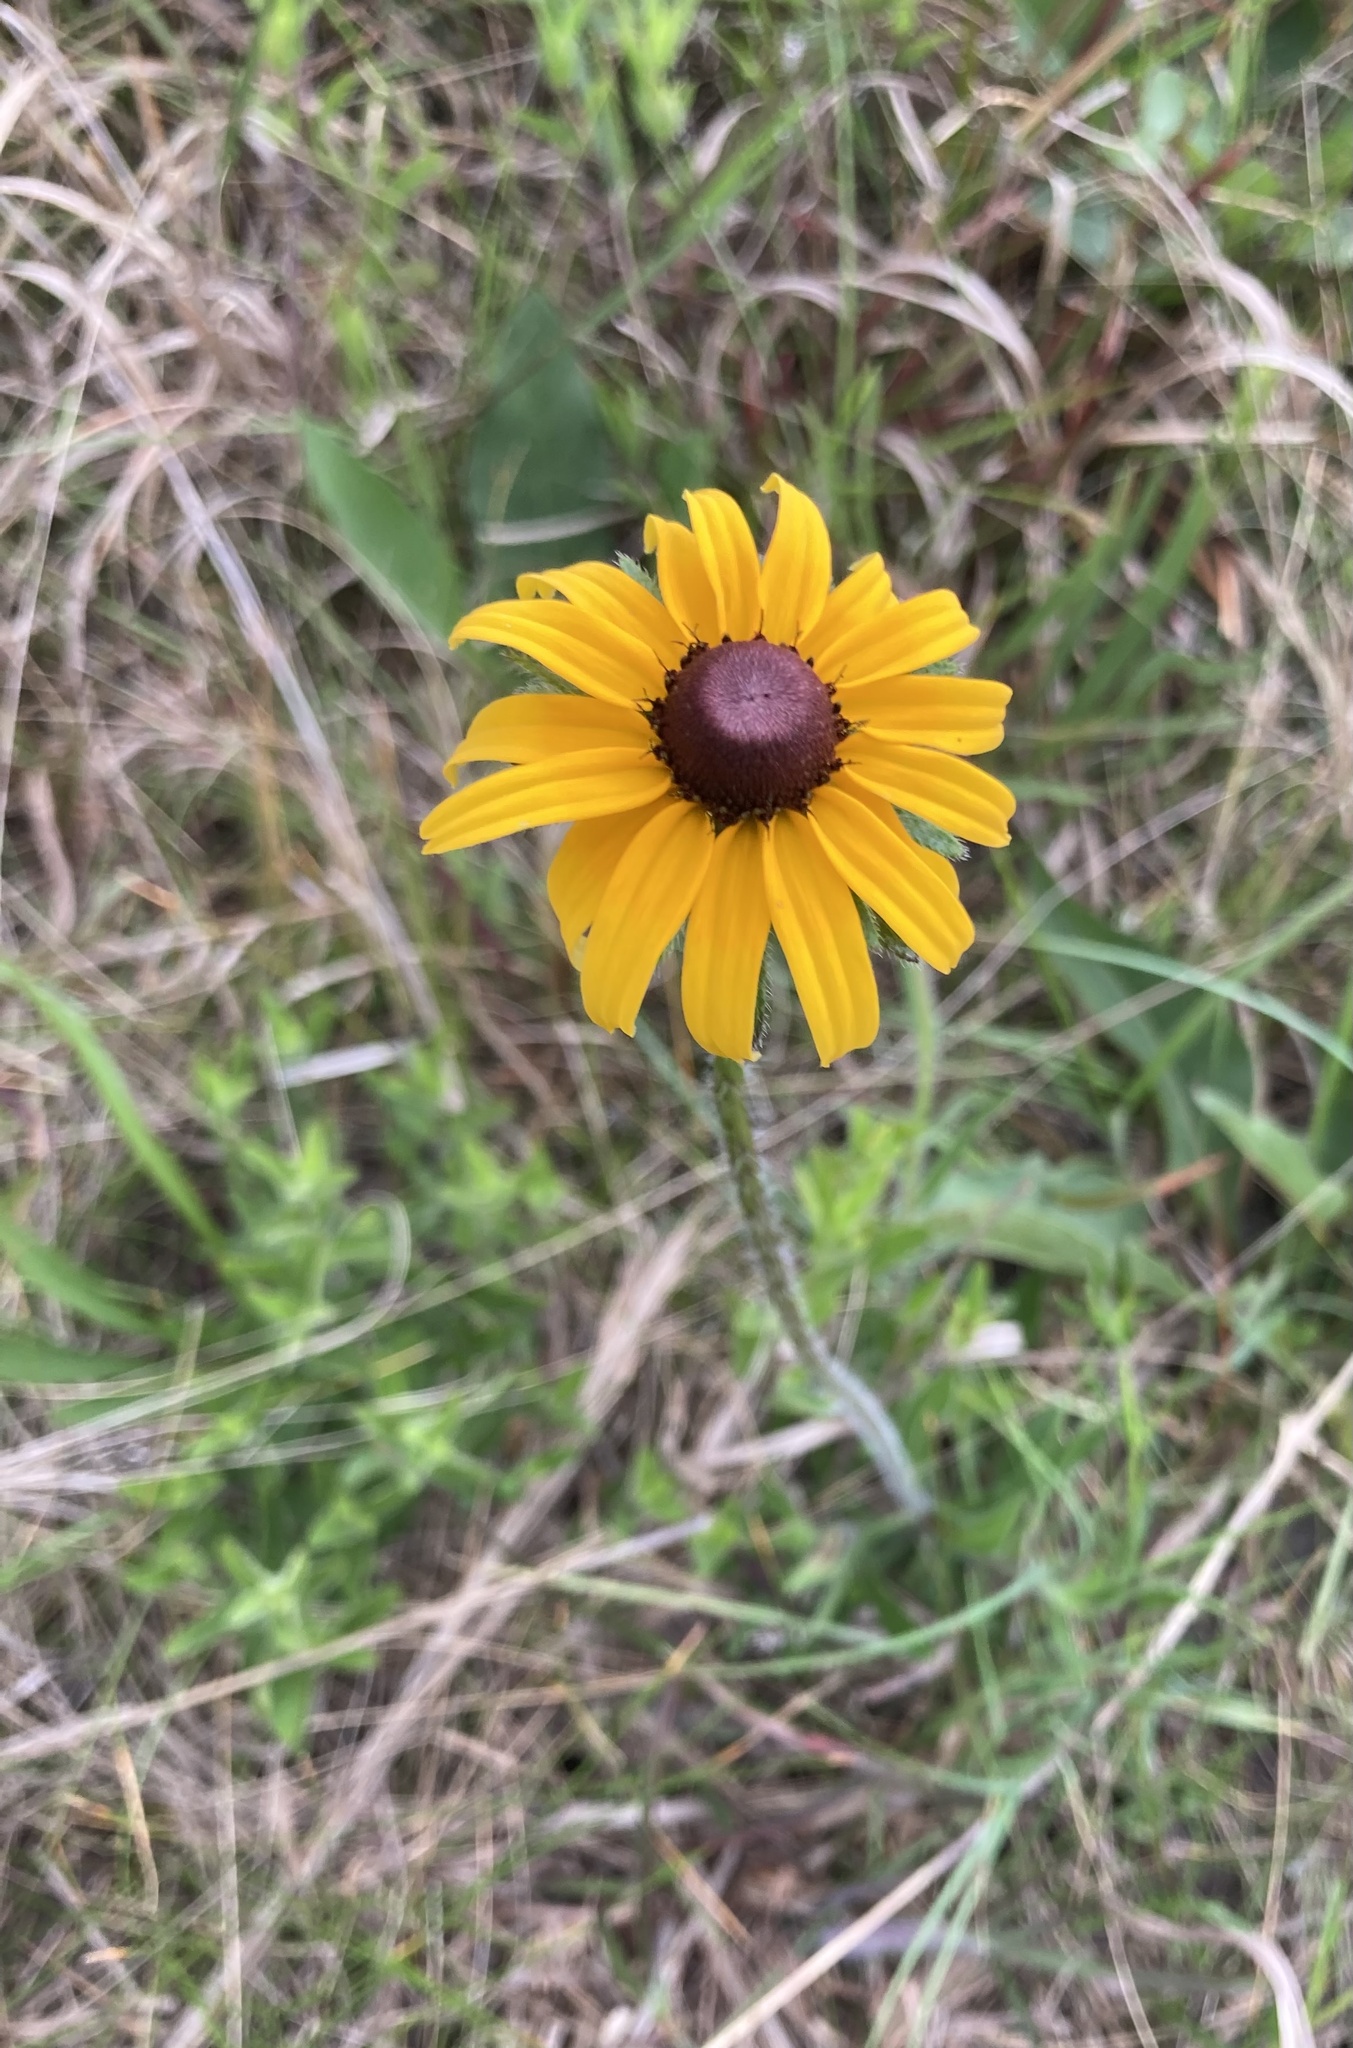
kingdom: Plantae
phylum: Tracheophyta
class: Magnoliopsida
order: Asterales
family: Asteraceae
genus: Rudbeckia
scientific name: Rudbeckia hirta
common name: Black-eyed-susan
